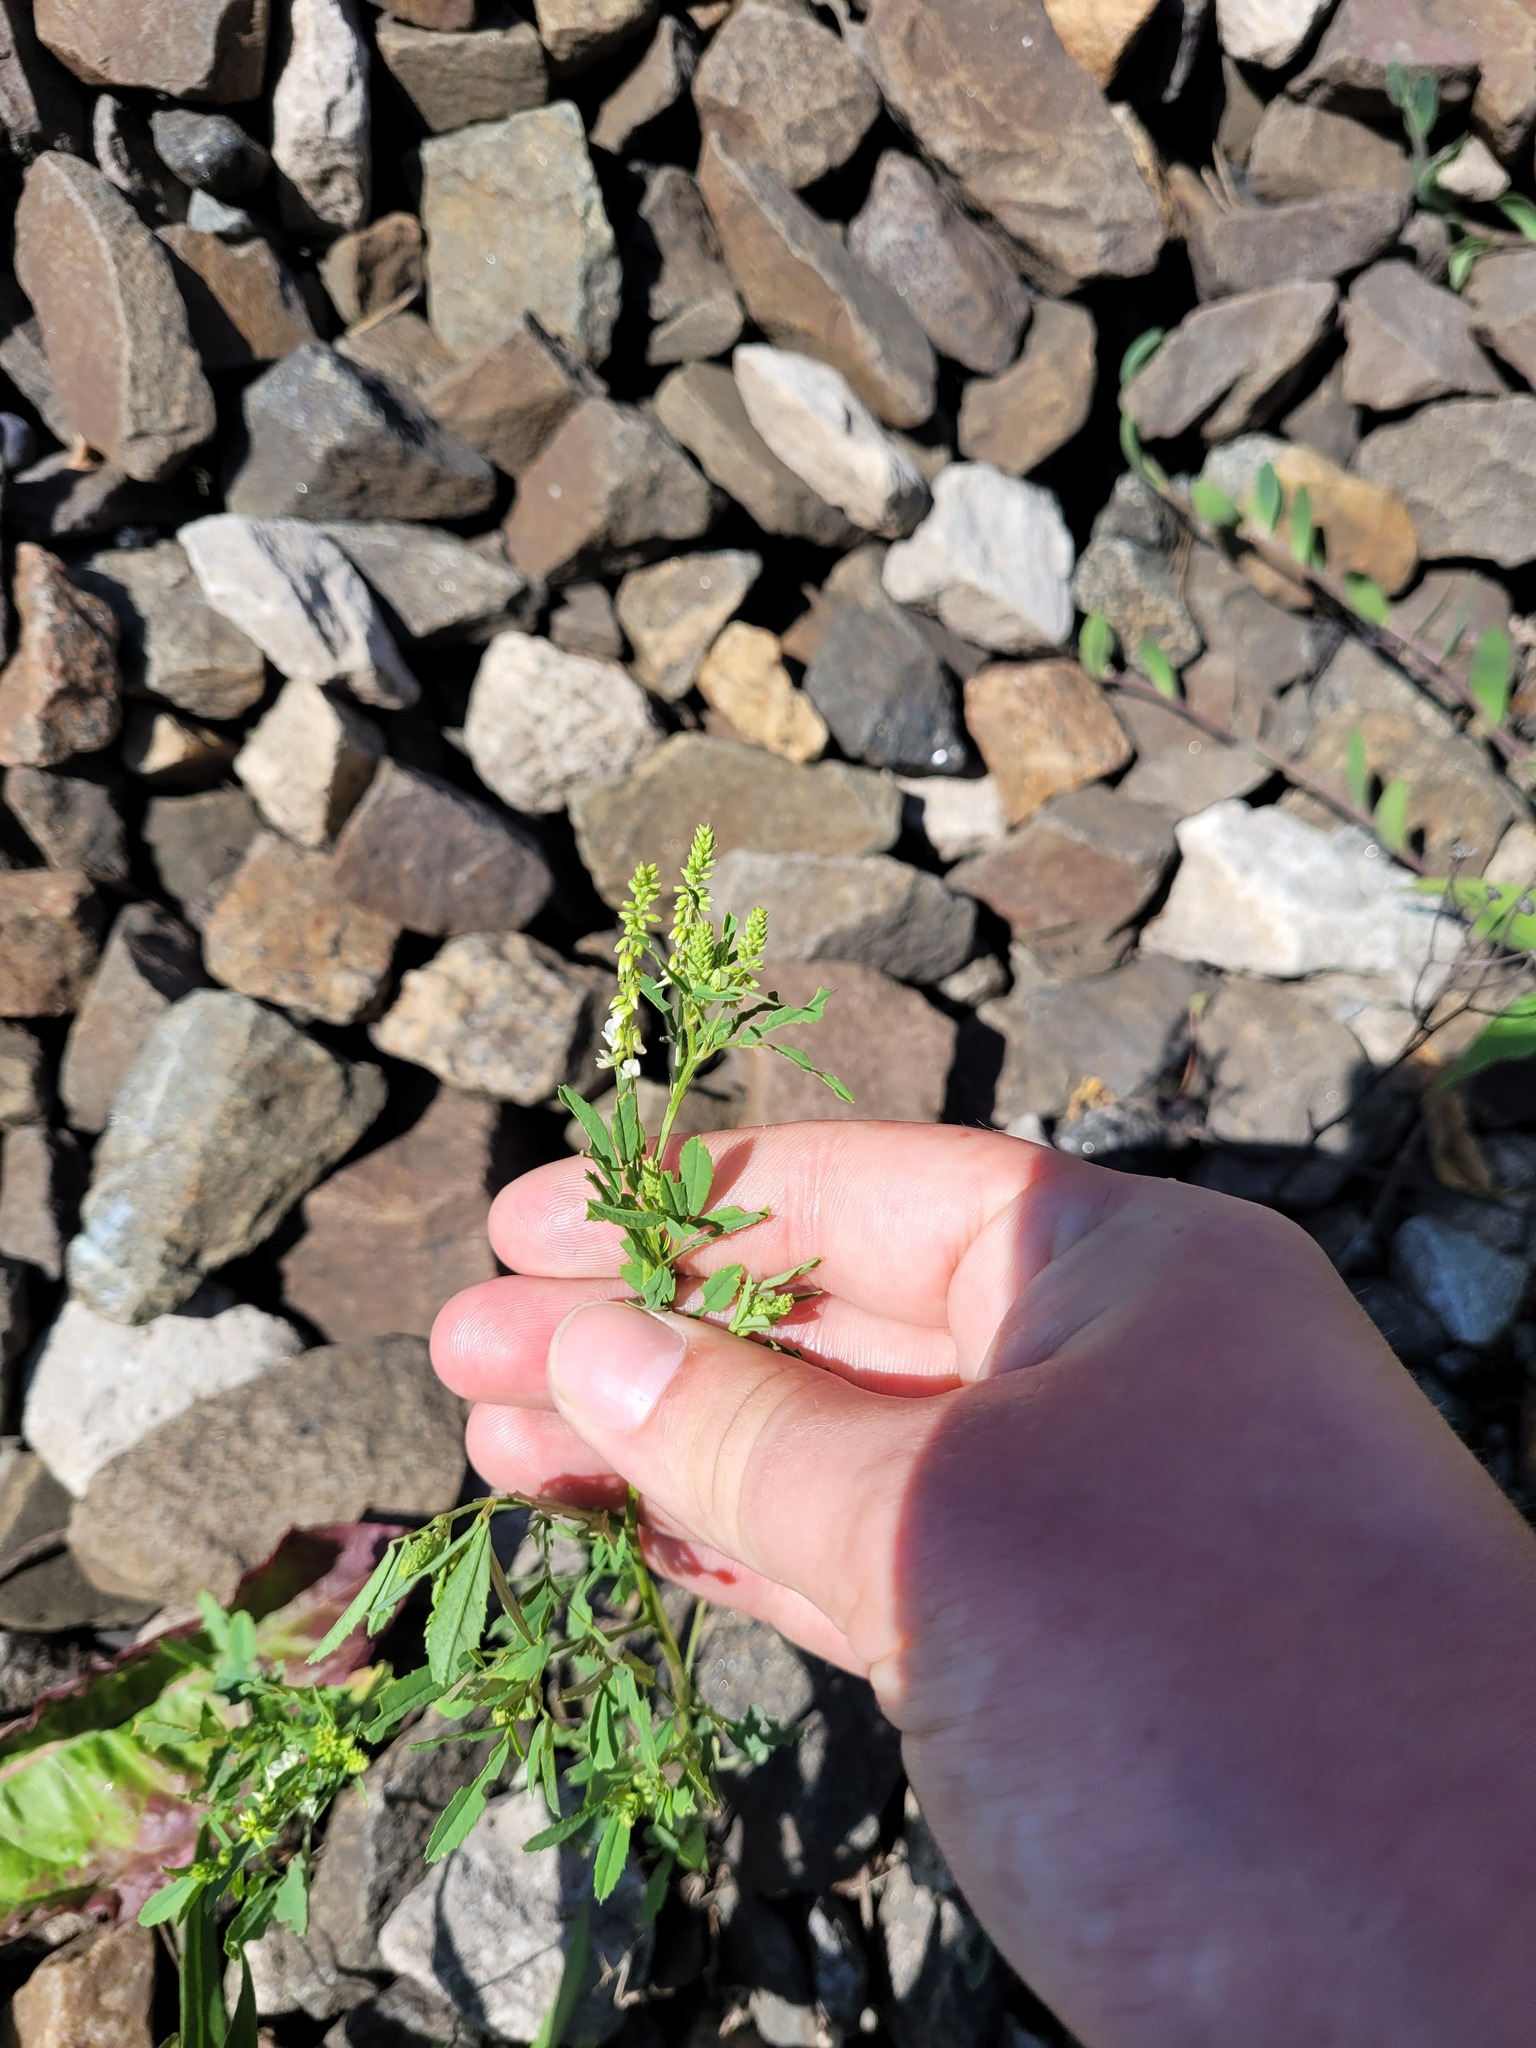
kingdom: Plantae
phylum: Tracheophyta
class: Magnoliopsida
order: Fabales
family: Fabaceae
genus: Melilotus
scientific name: Melilotus albus
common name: White melilot
